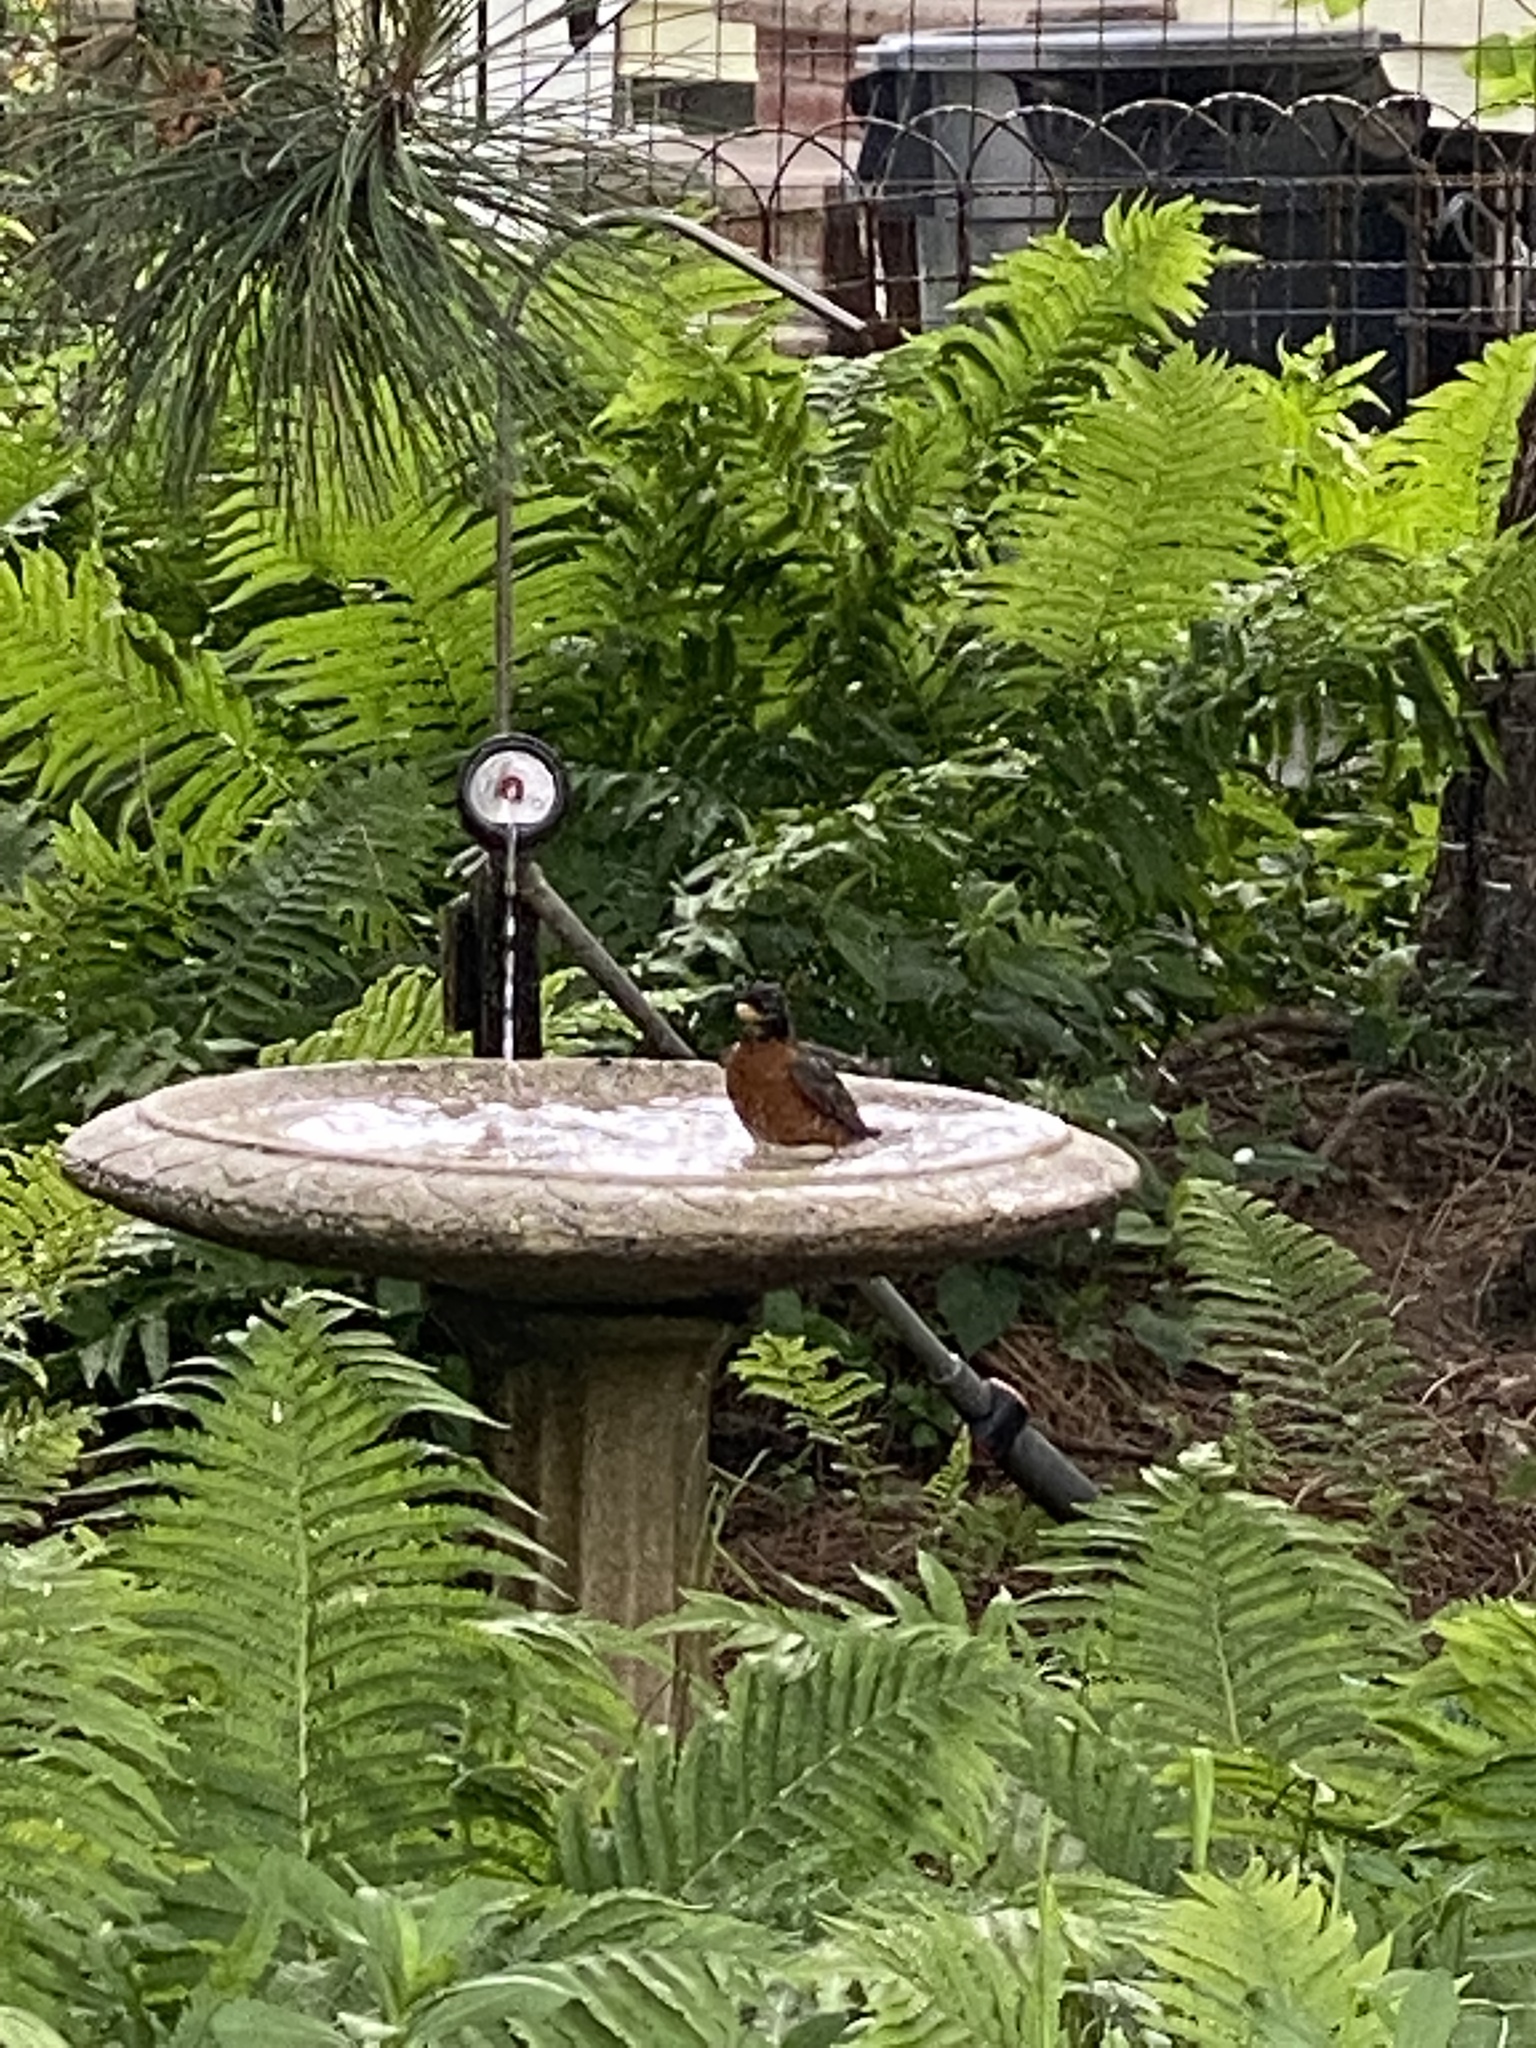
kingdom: Animalia
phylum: Chordata
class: Aves
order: Passeriformes
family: Turdidae
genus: Turdus
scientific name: Turdus migratorius
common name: American robin
